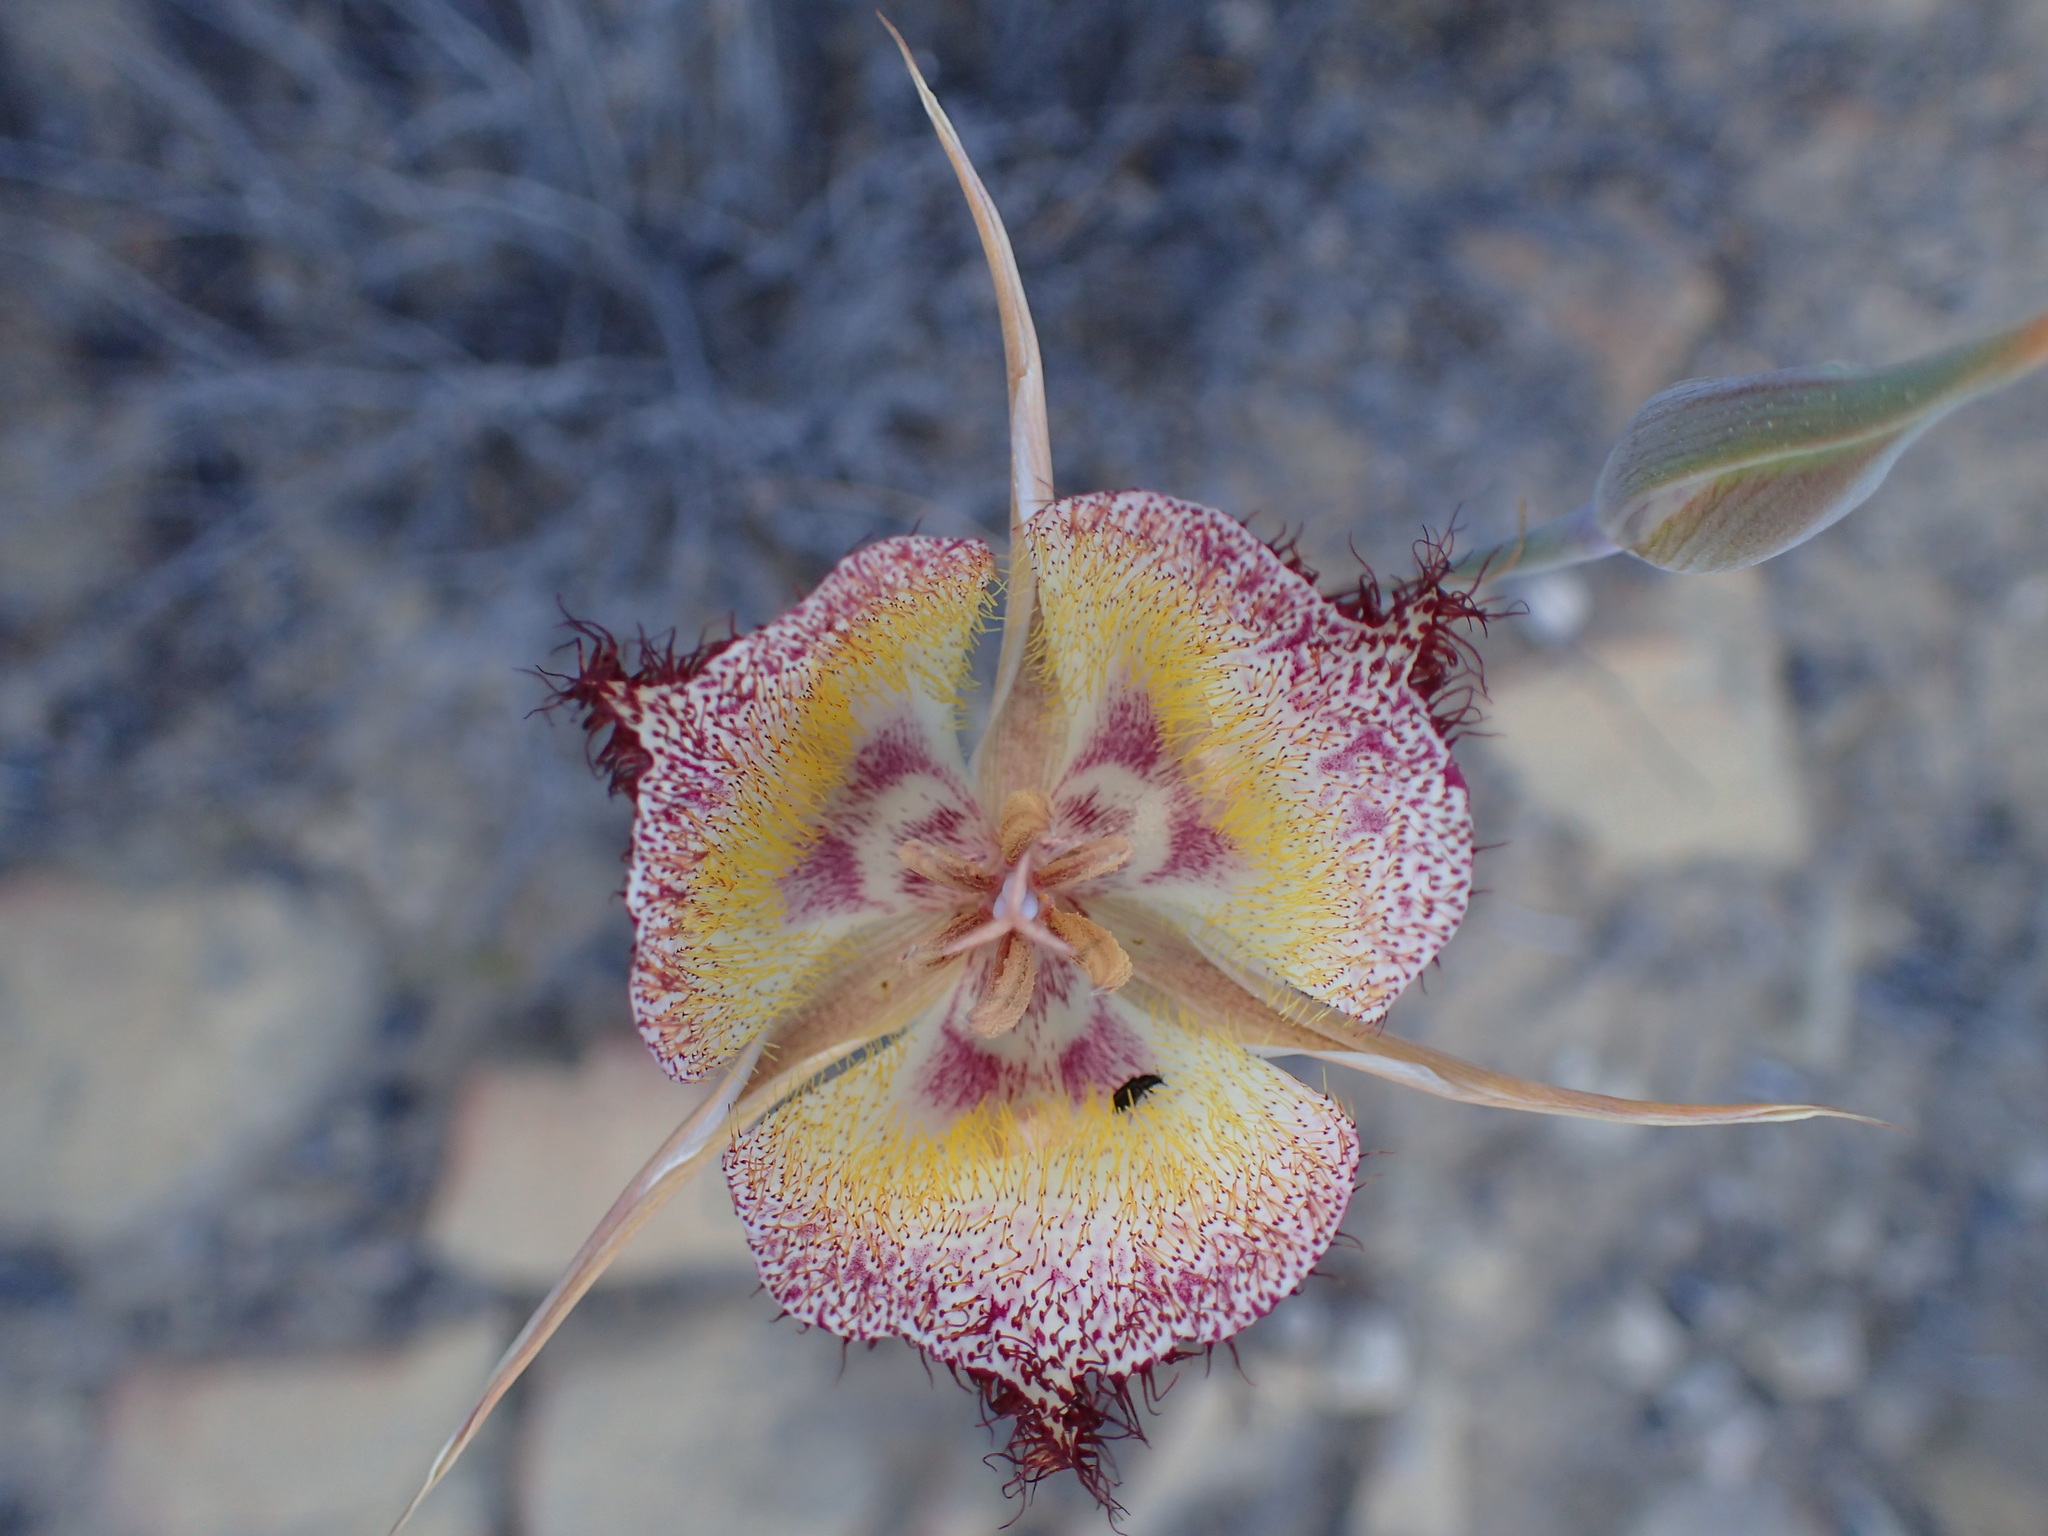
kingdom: Plantae
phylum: Tracheophyta
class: Liliopsida
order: Liliales
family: Liliaceae
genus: Calochortus
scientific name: Calochortus fimbriatus
